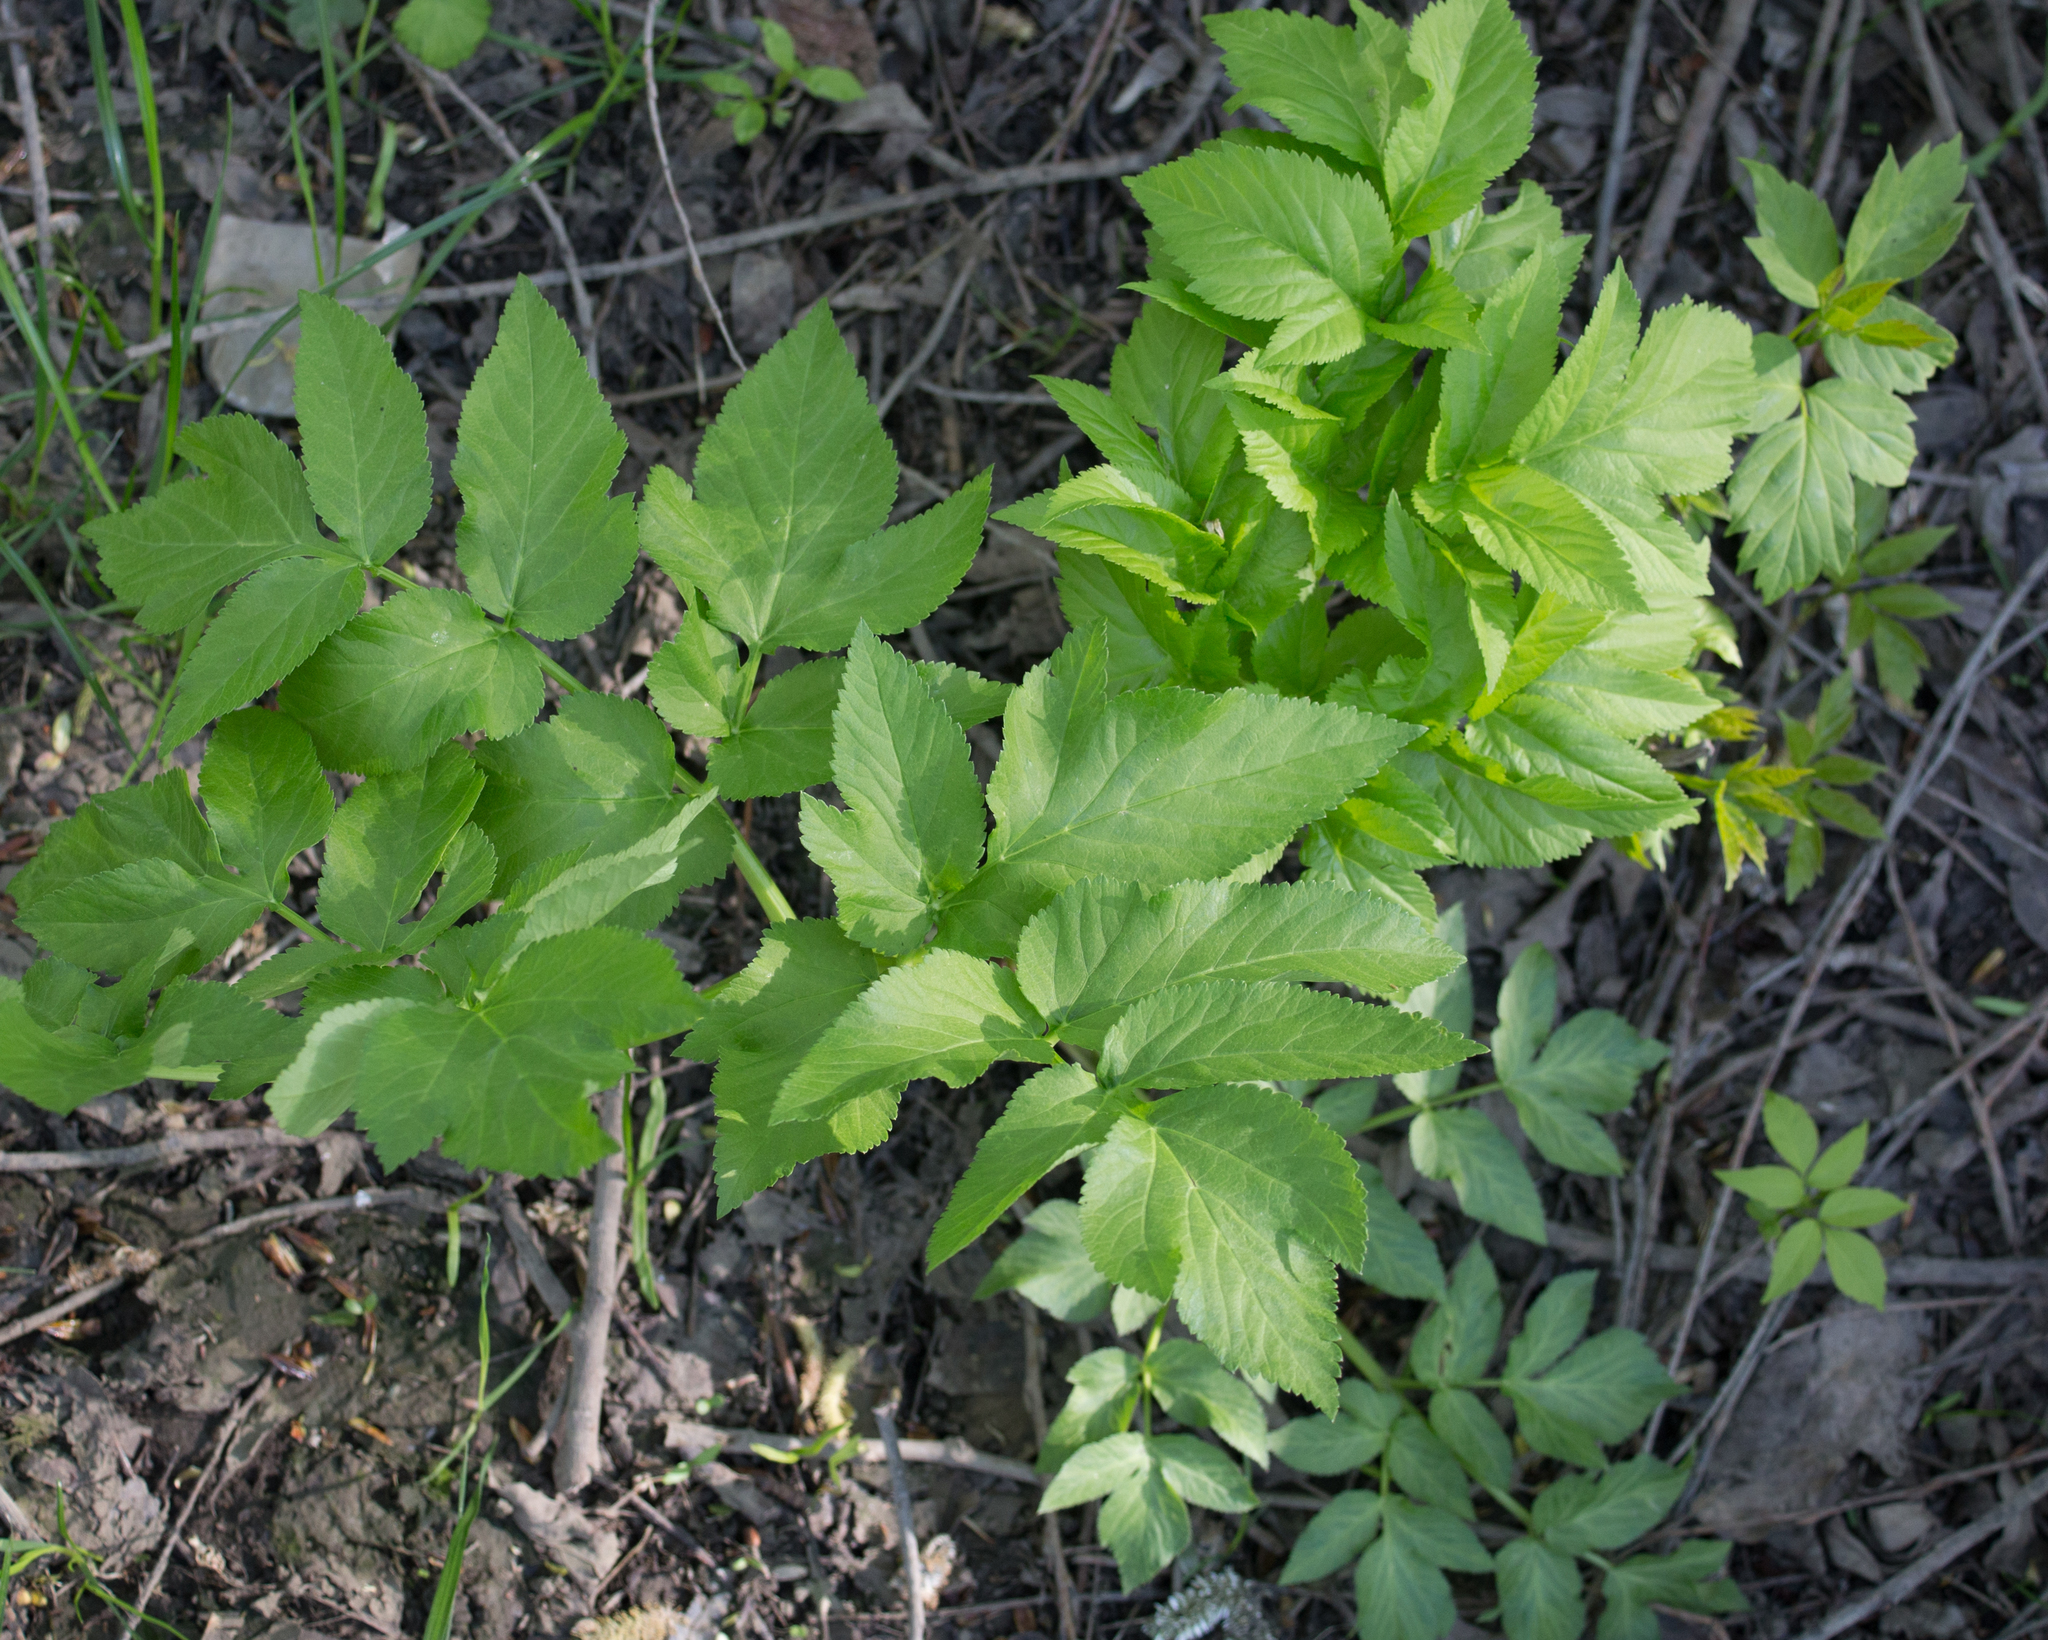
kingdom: Plantae
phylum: Tracheophyta
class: Magnoliopsida
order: Apiales
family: Apiaceae
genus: Angelica
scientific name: Angelica archangelica
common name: Garden angelica
